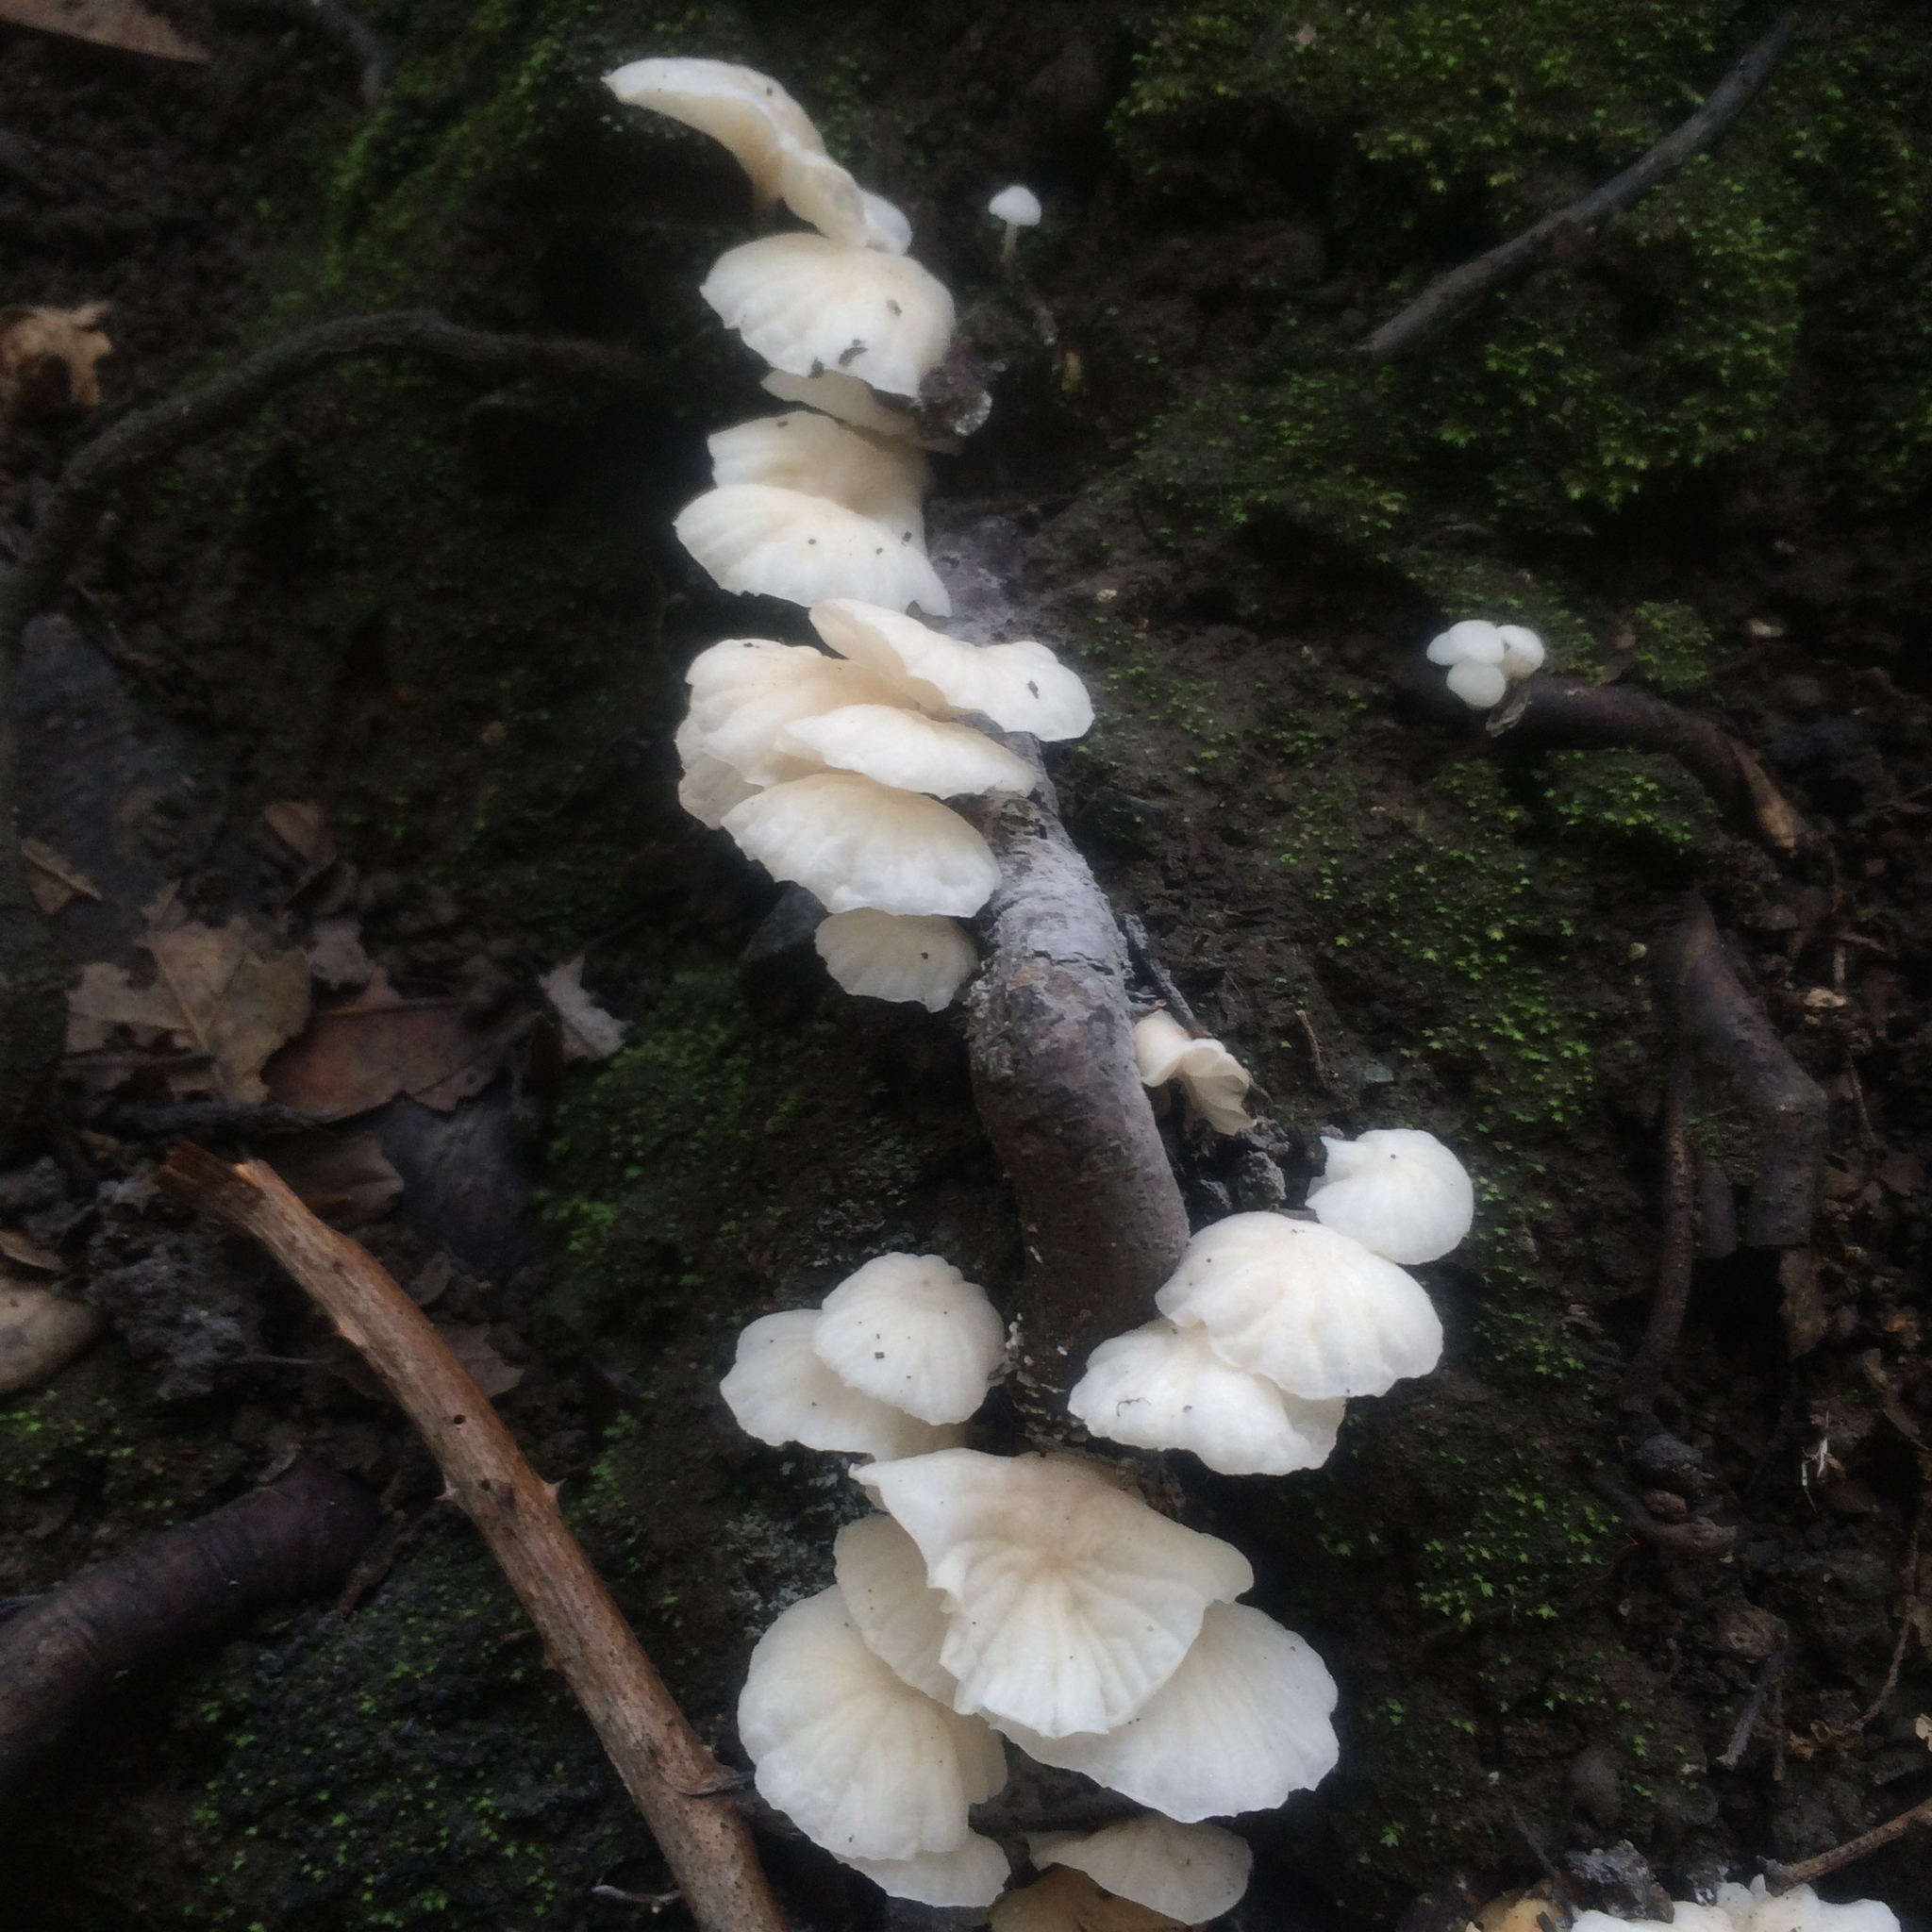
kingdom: Fungi
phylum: Basidiomycota
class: Agaricomycetes
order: Agaricales
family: Omphalotaceae
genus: Marasmiellus
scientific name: Marasmiellus candidus
